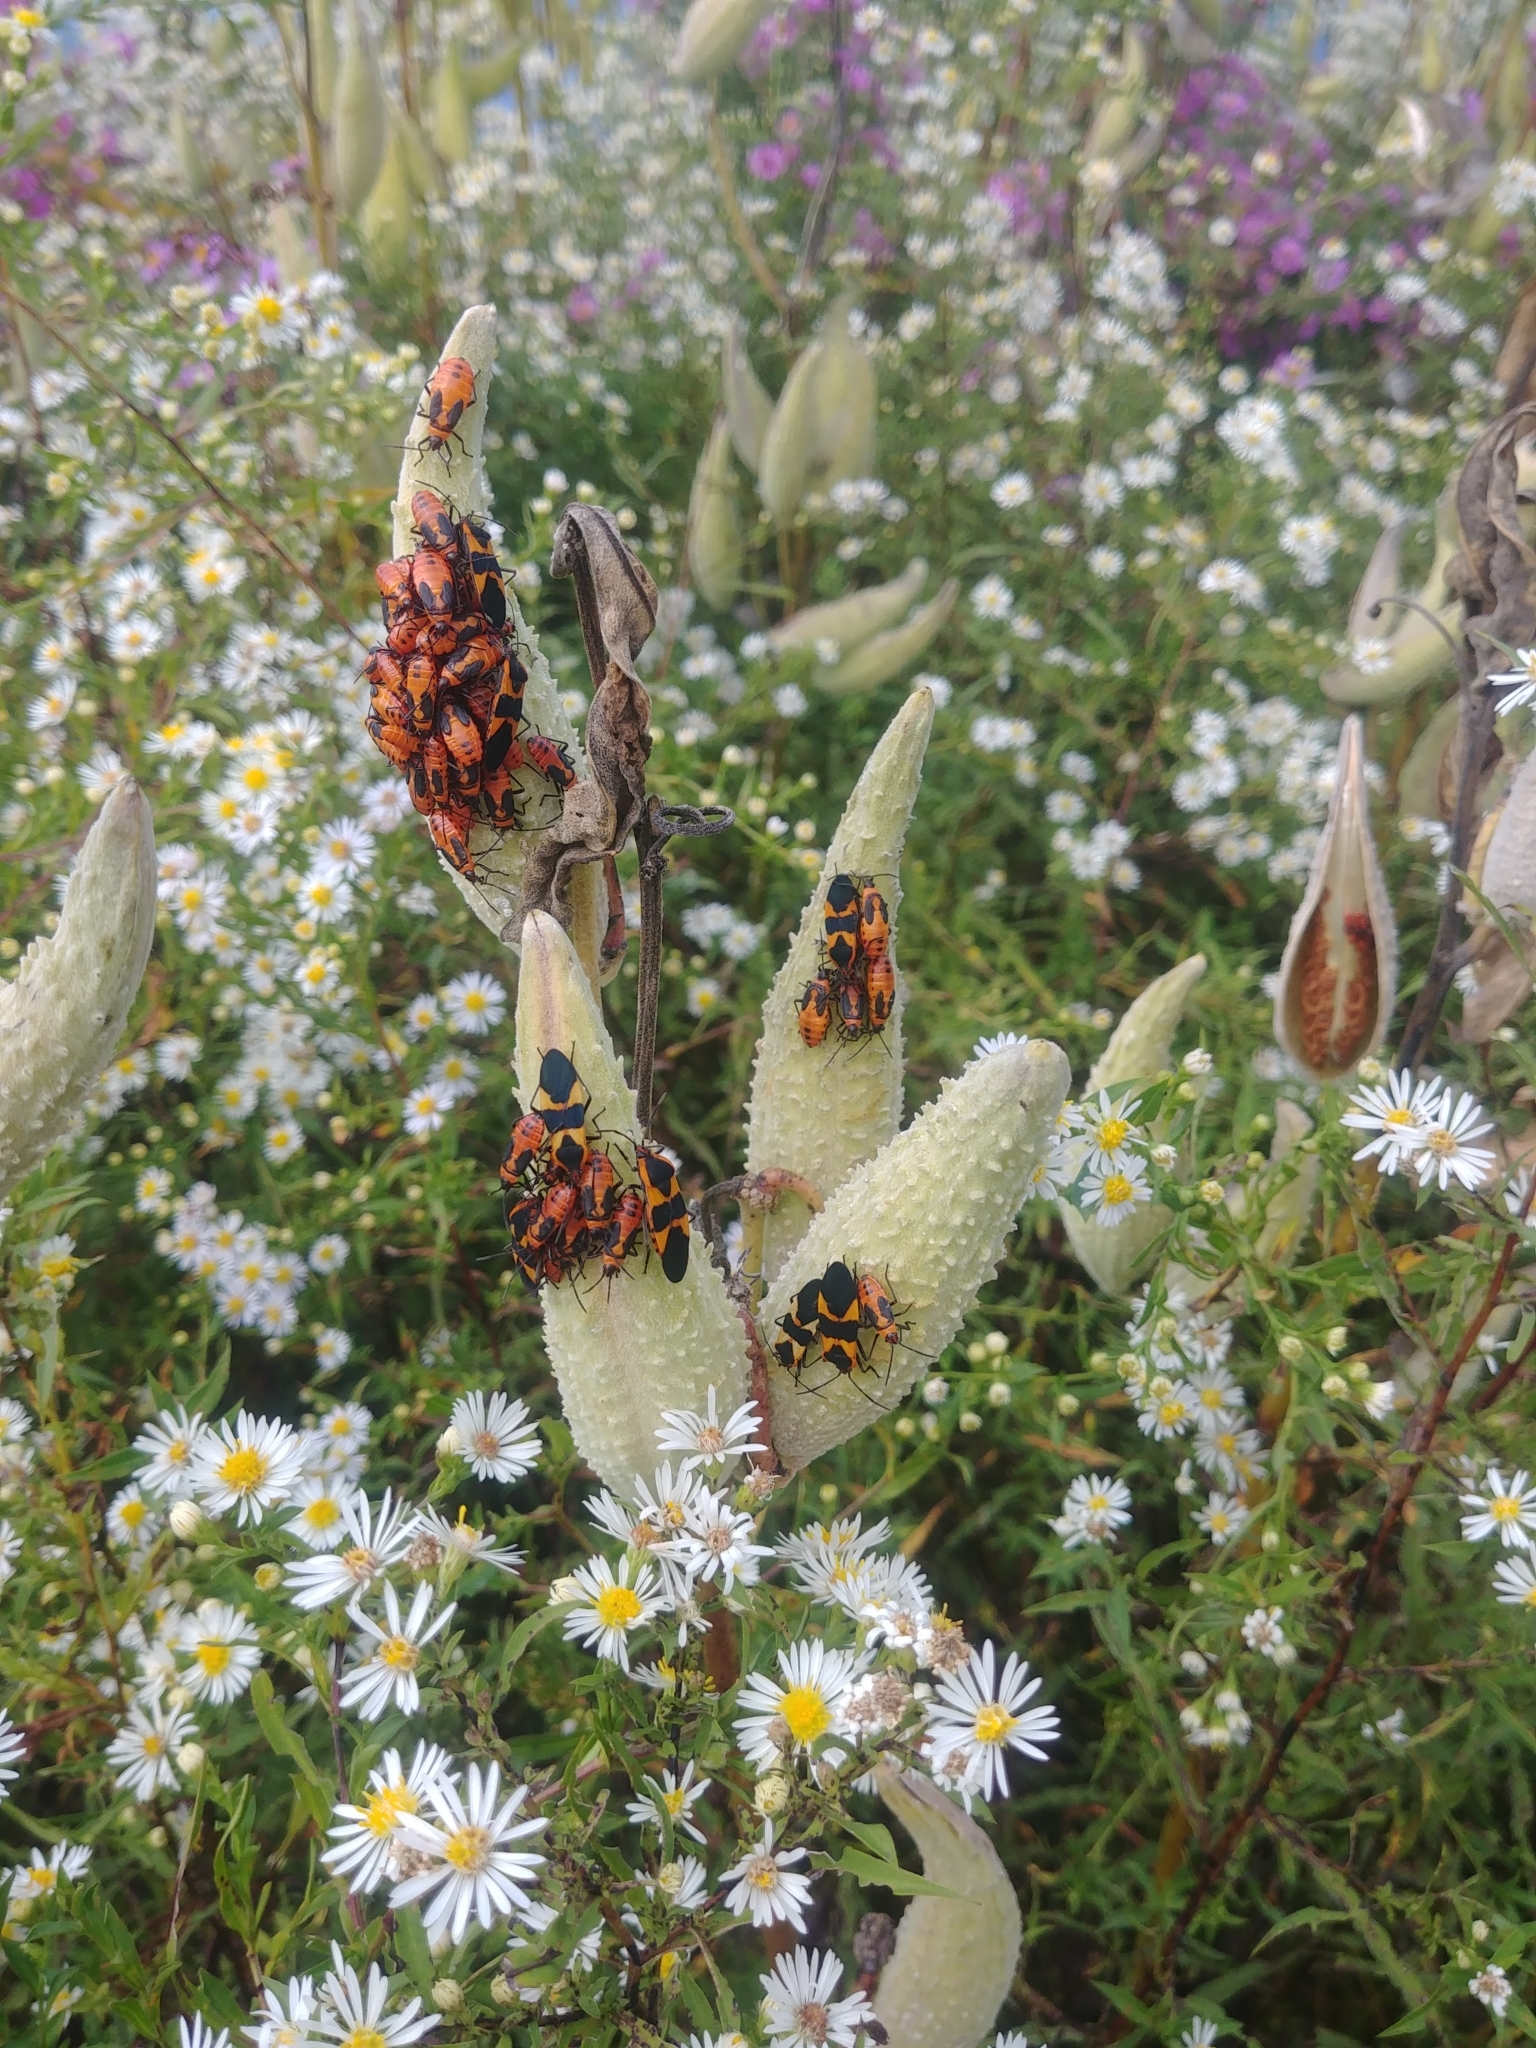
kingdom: Animalia
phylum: Arthropoda
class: Insecta
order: Hemiptera
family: Lygaeidae
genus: Oncopeltus
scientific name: Oncopeltus fasciatus
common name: Large milkweed bug
